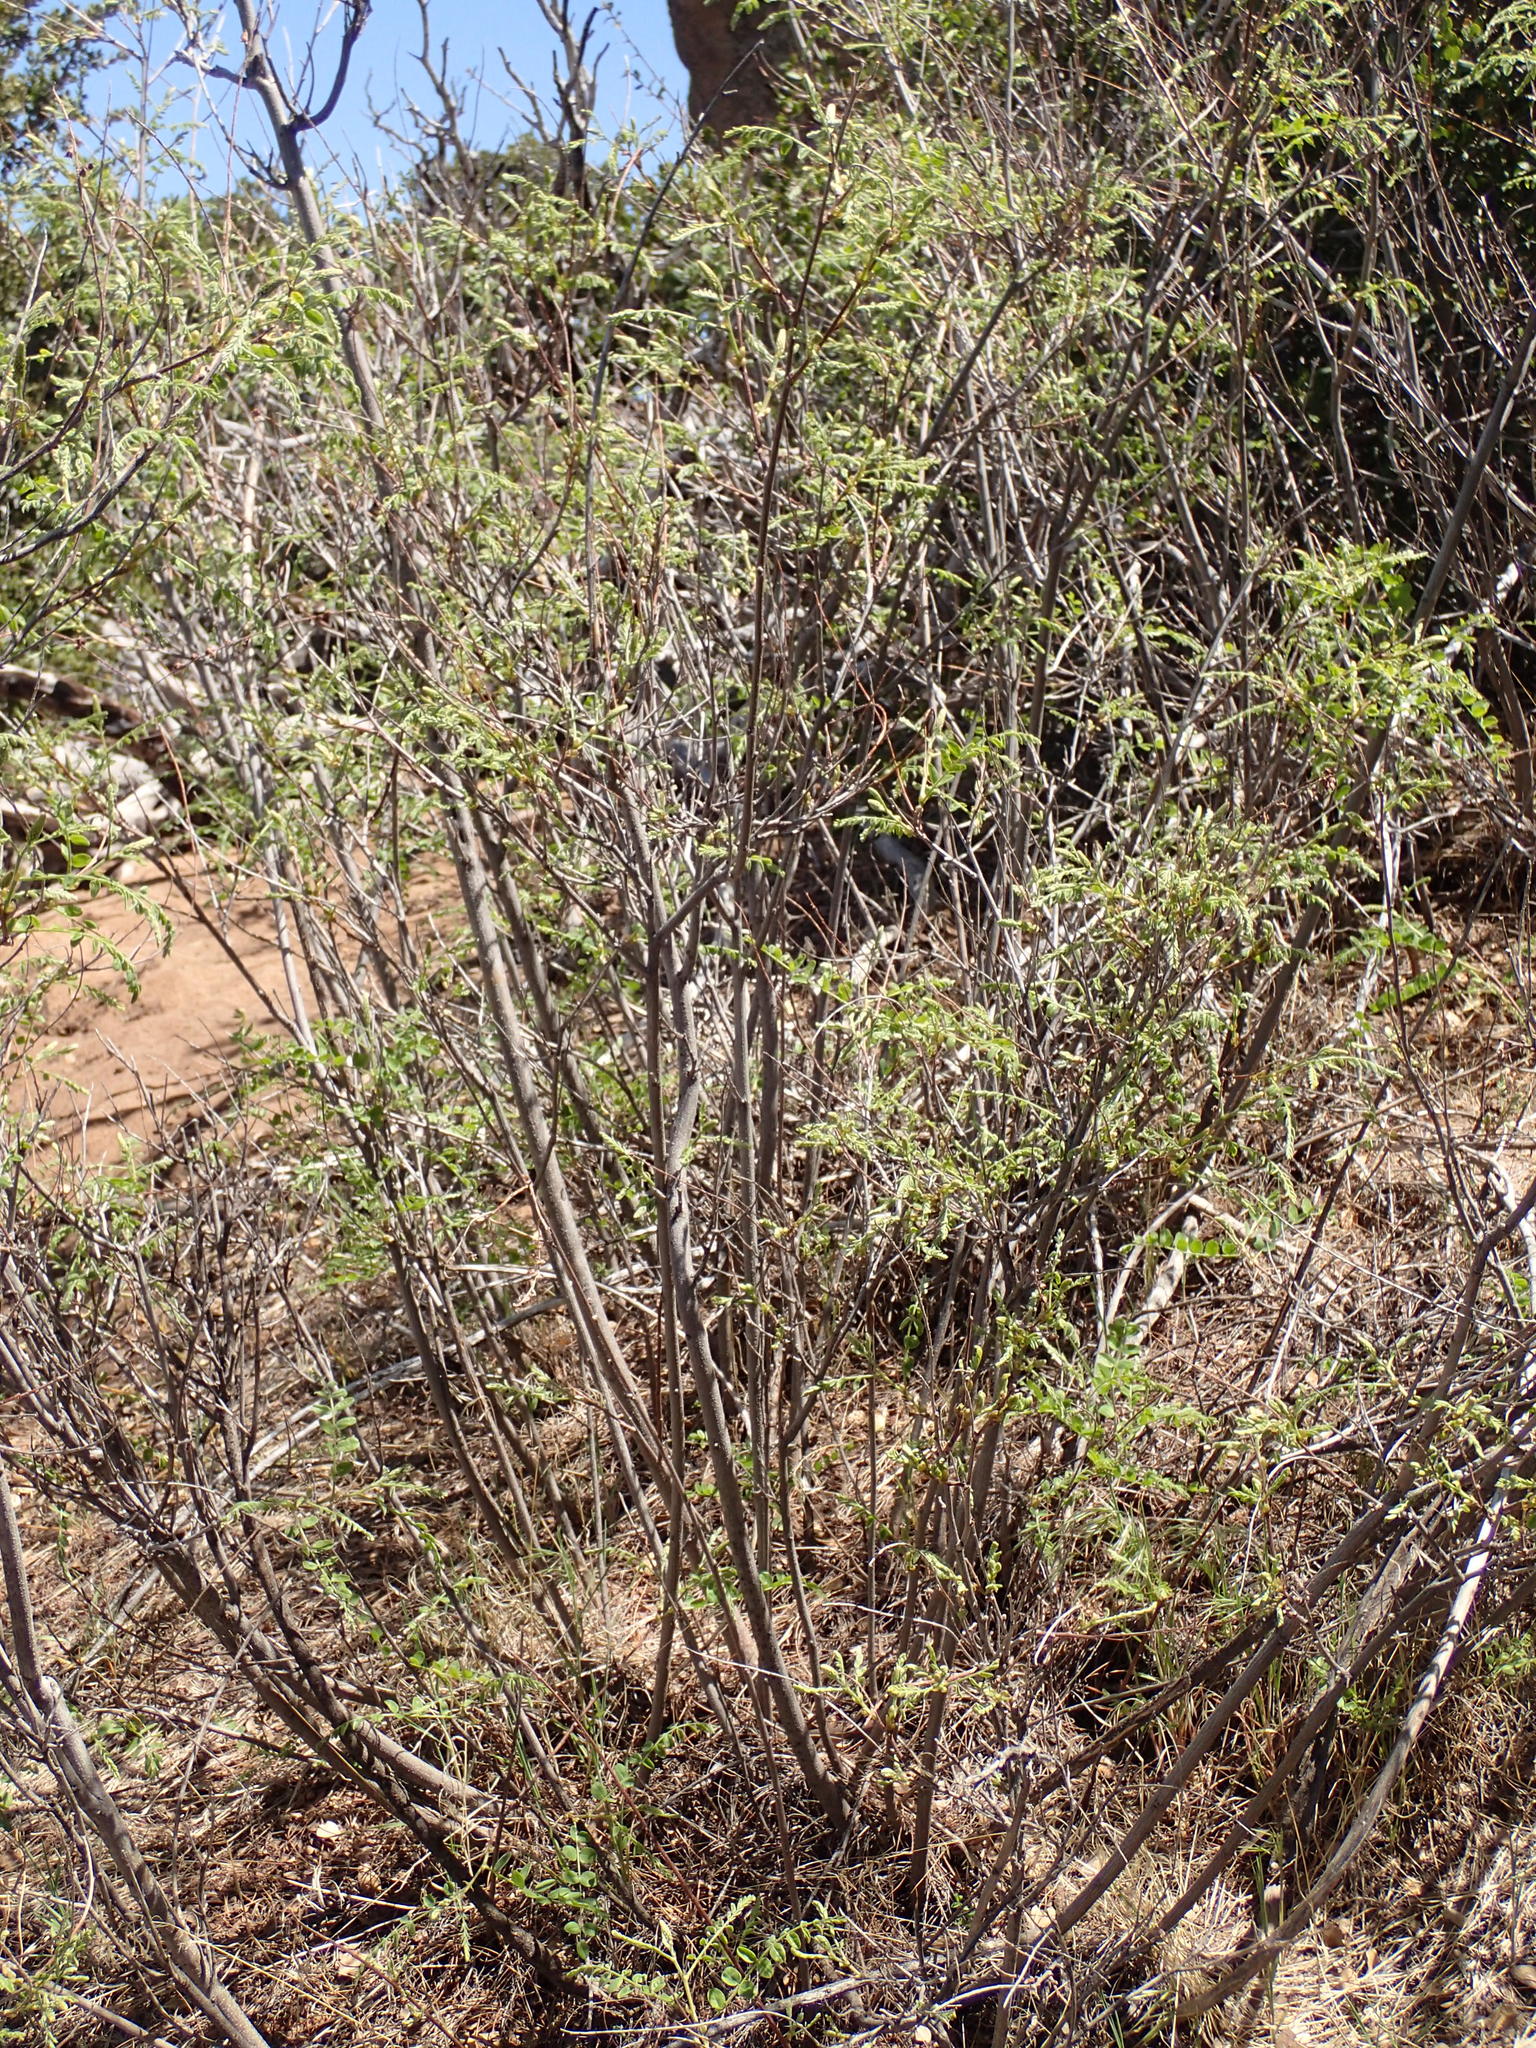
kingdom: Plantae
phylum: Tracheophyta
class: Magnoliopsida
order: Fabales
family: Fabaceae
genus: Amorpha
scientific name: Amorpha californica
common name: California indigobush
